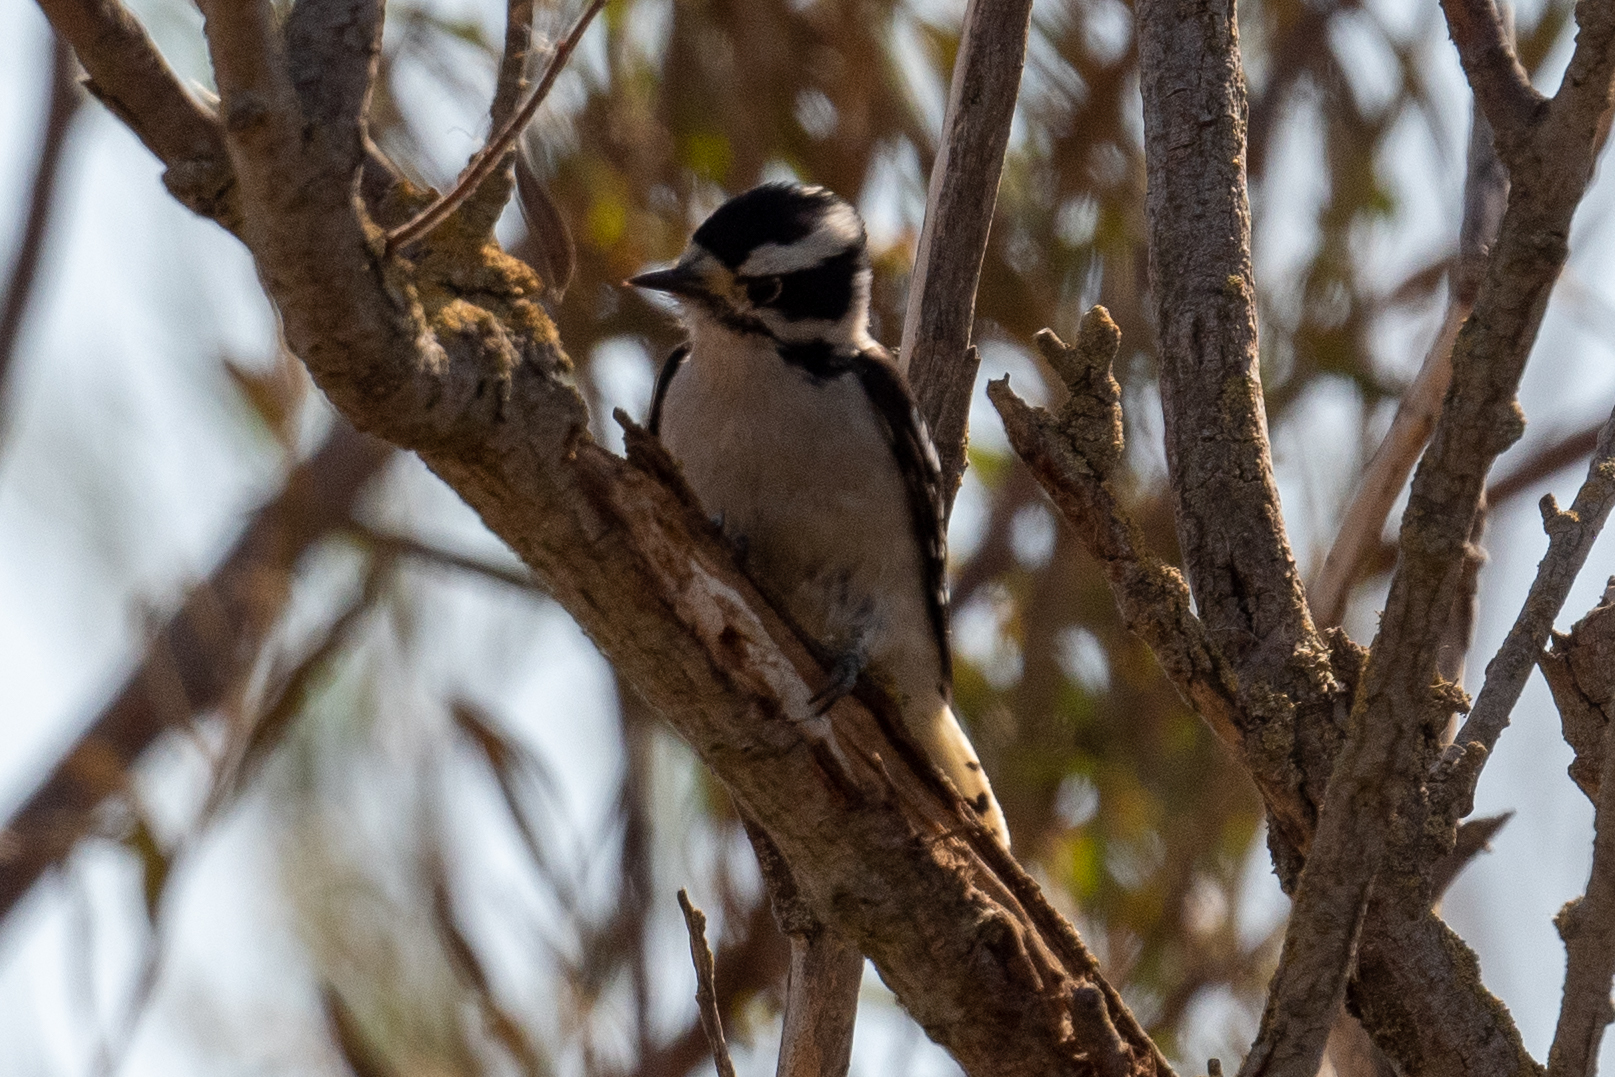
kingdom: Animalia
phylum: Chordata
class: Aves
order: Piciformes
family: Picidae
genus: Dryobates
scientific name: Dryobates pubescens
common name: Downy woodpecker
